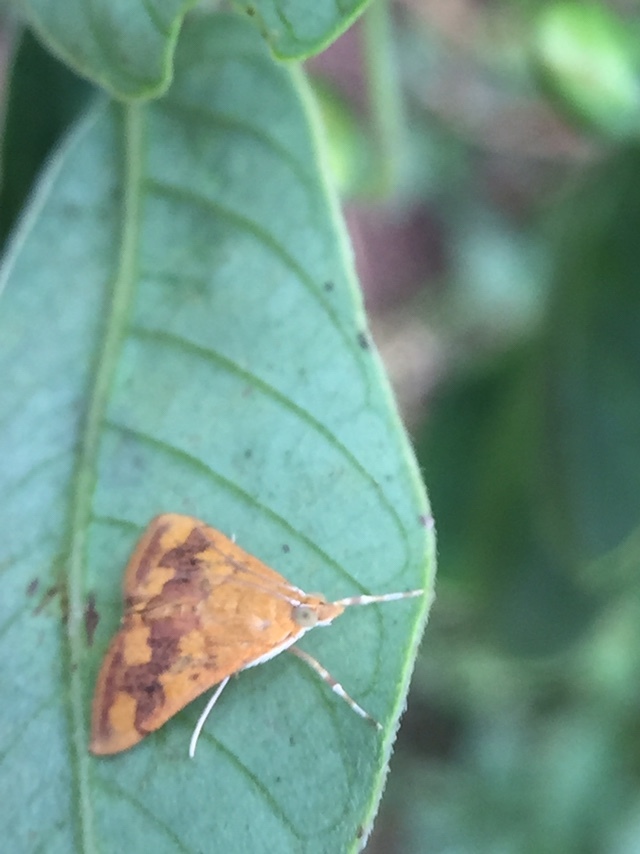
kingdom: Animalia
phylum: Arthropoda
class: Insecta
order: Lepidoptera
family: Crambidae
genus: Pyrausta
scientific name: Pyrausta phoenicealis
